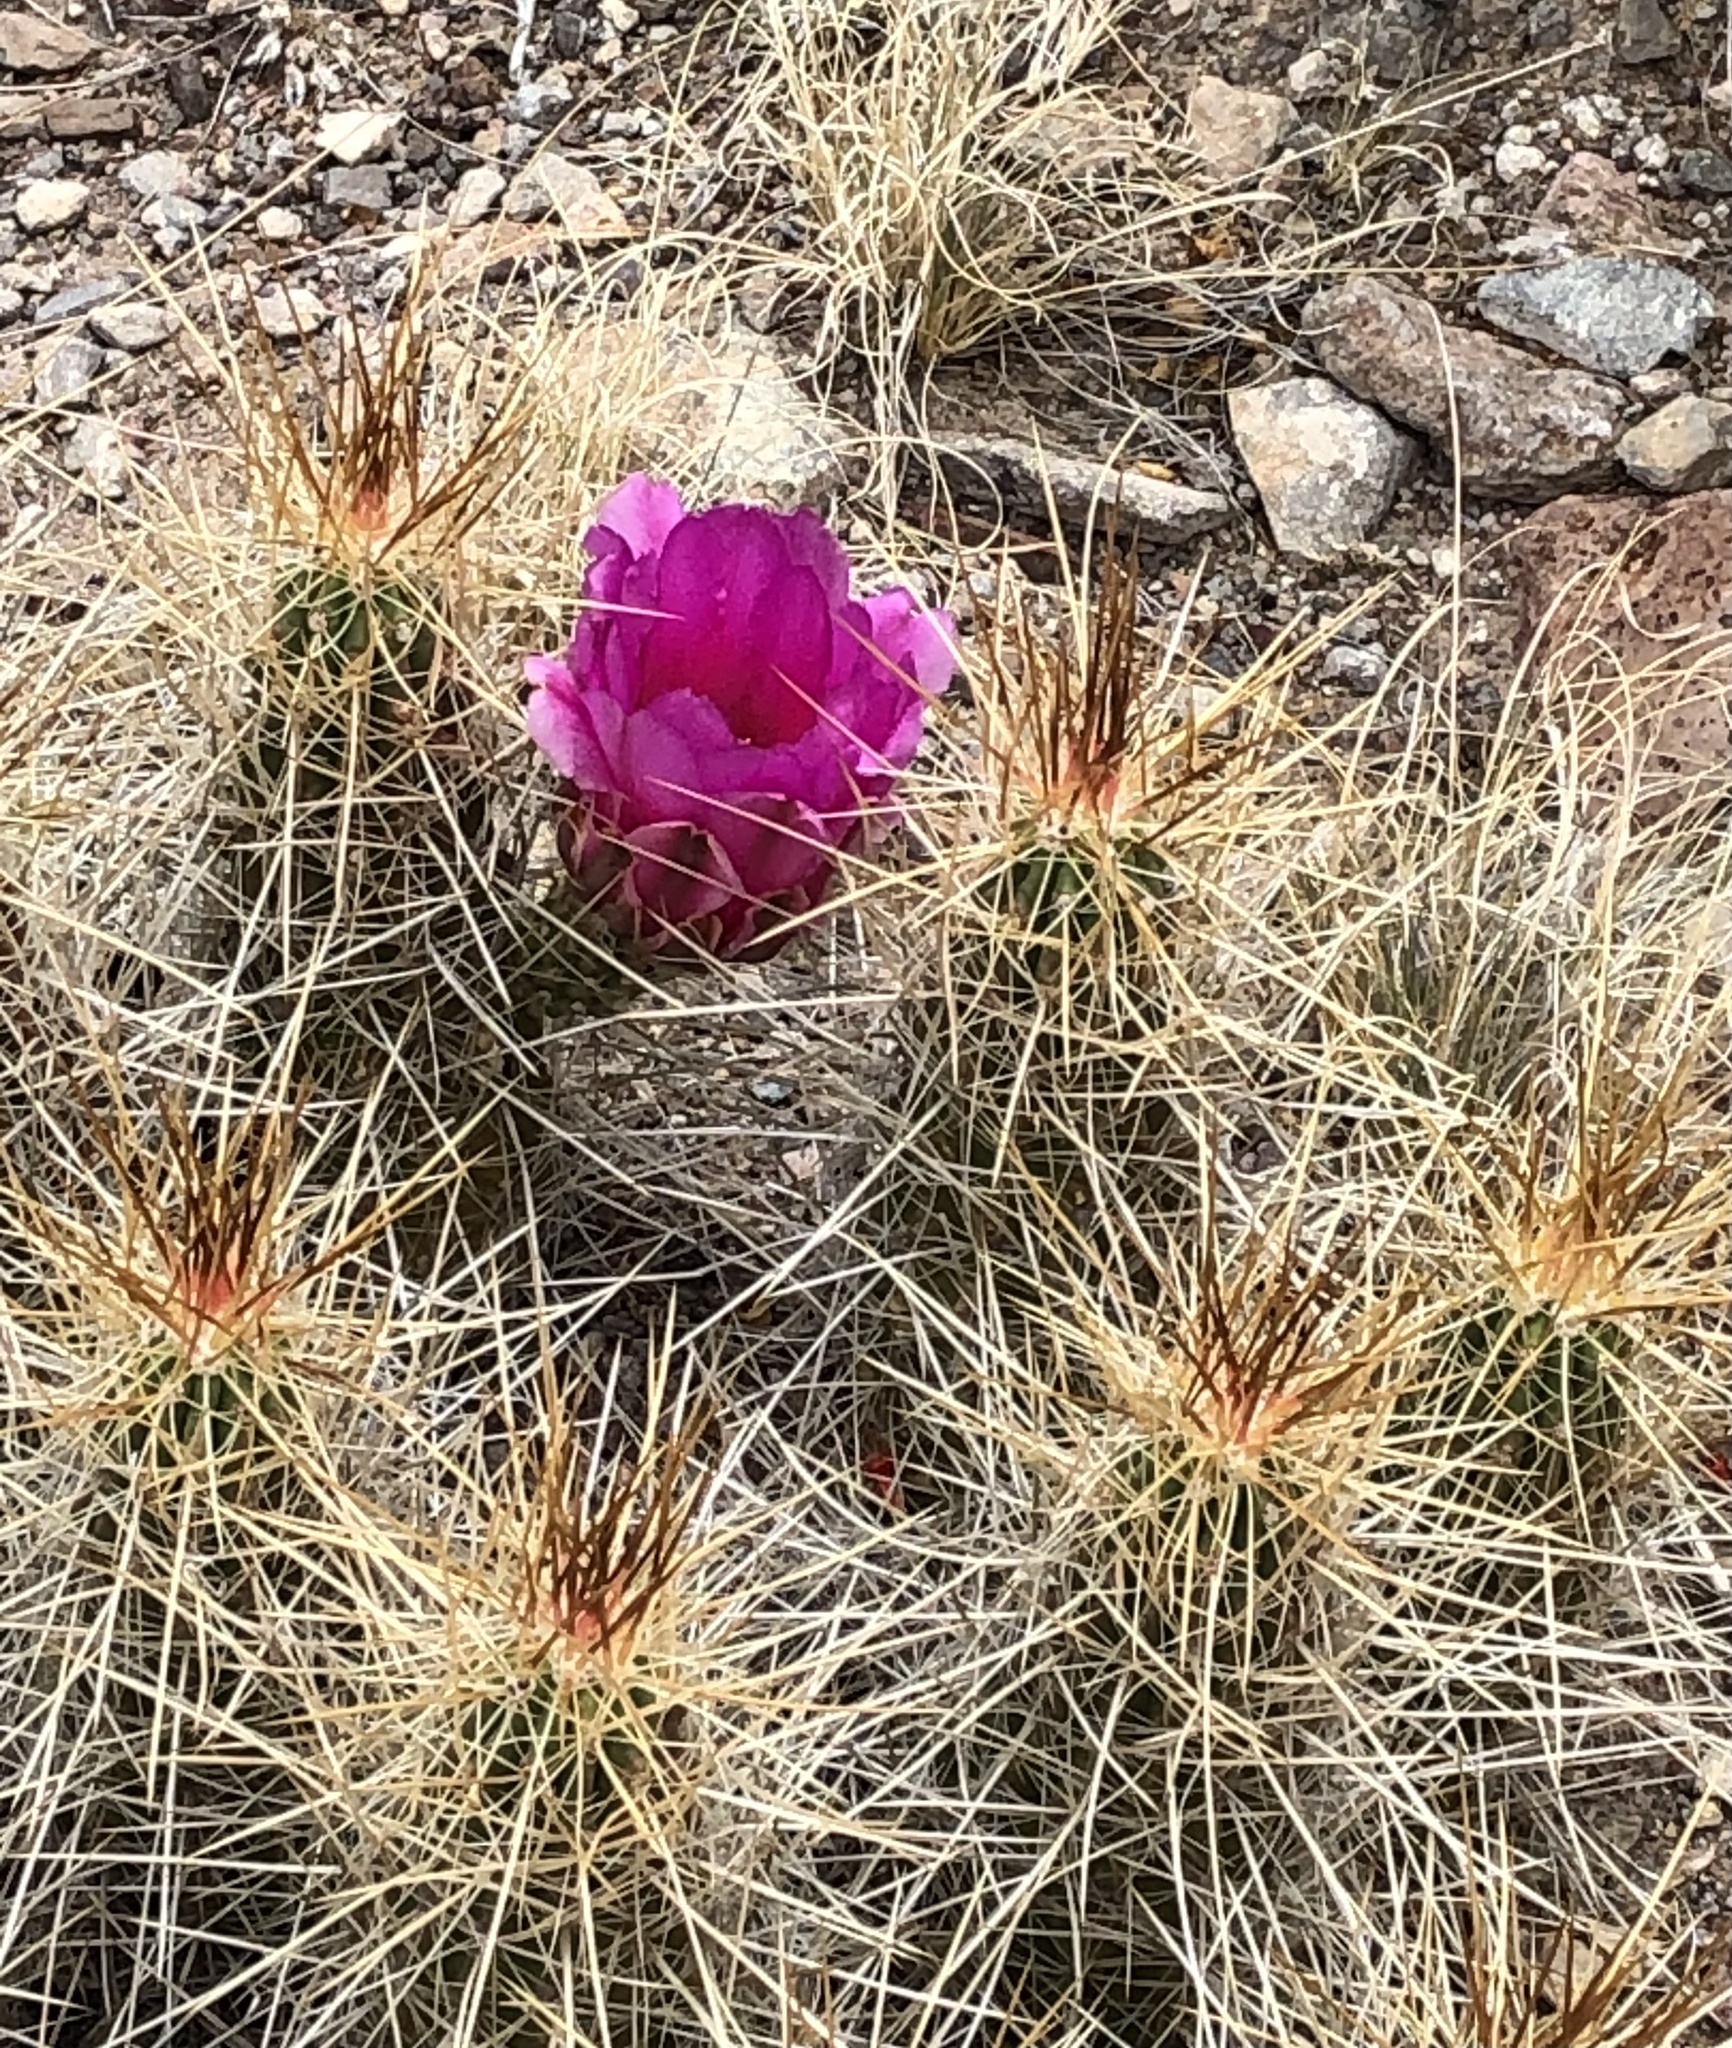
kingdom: Plantae
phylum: Tracheophyta
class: Magnoliopsida
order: Caryophyllales
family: Cactaceae
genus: Echinocereus
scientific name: Echinocereus stramineus
